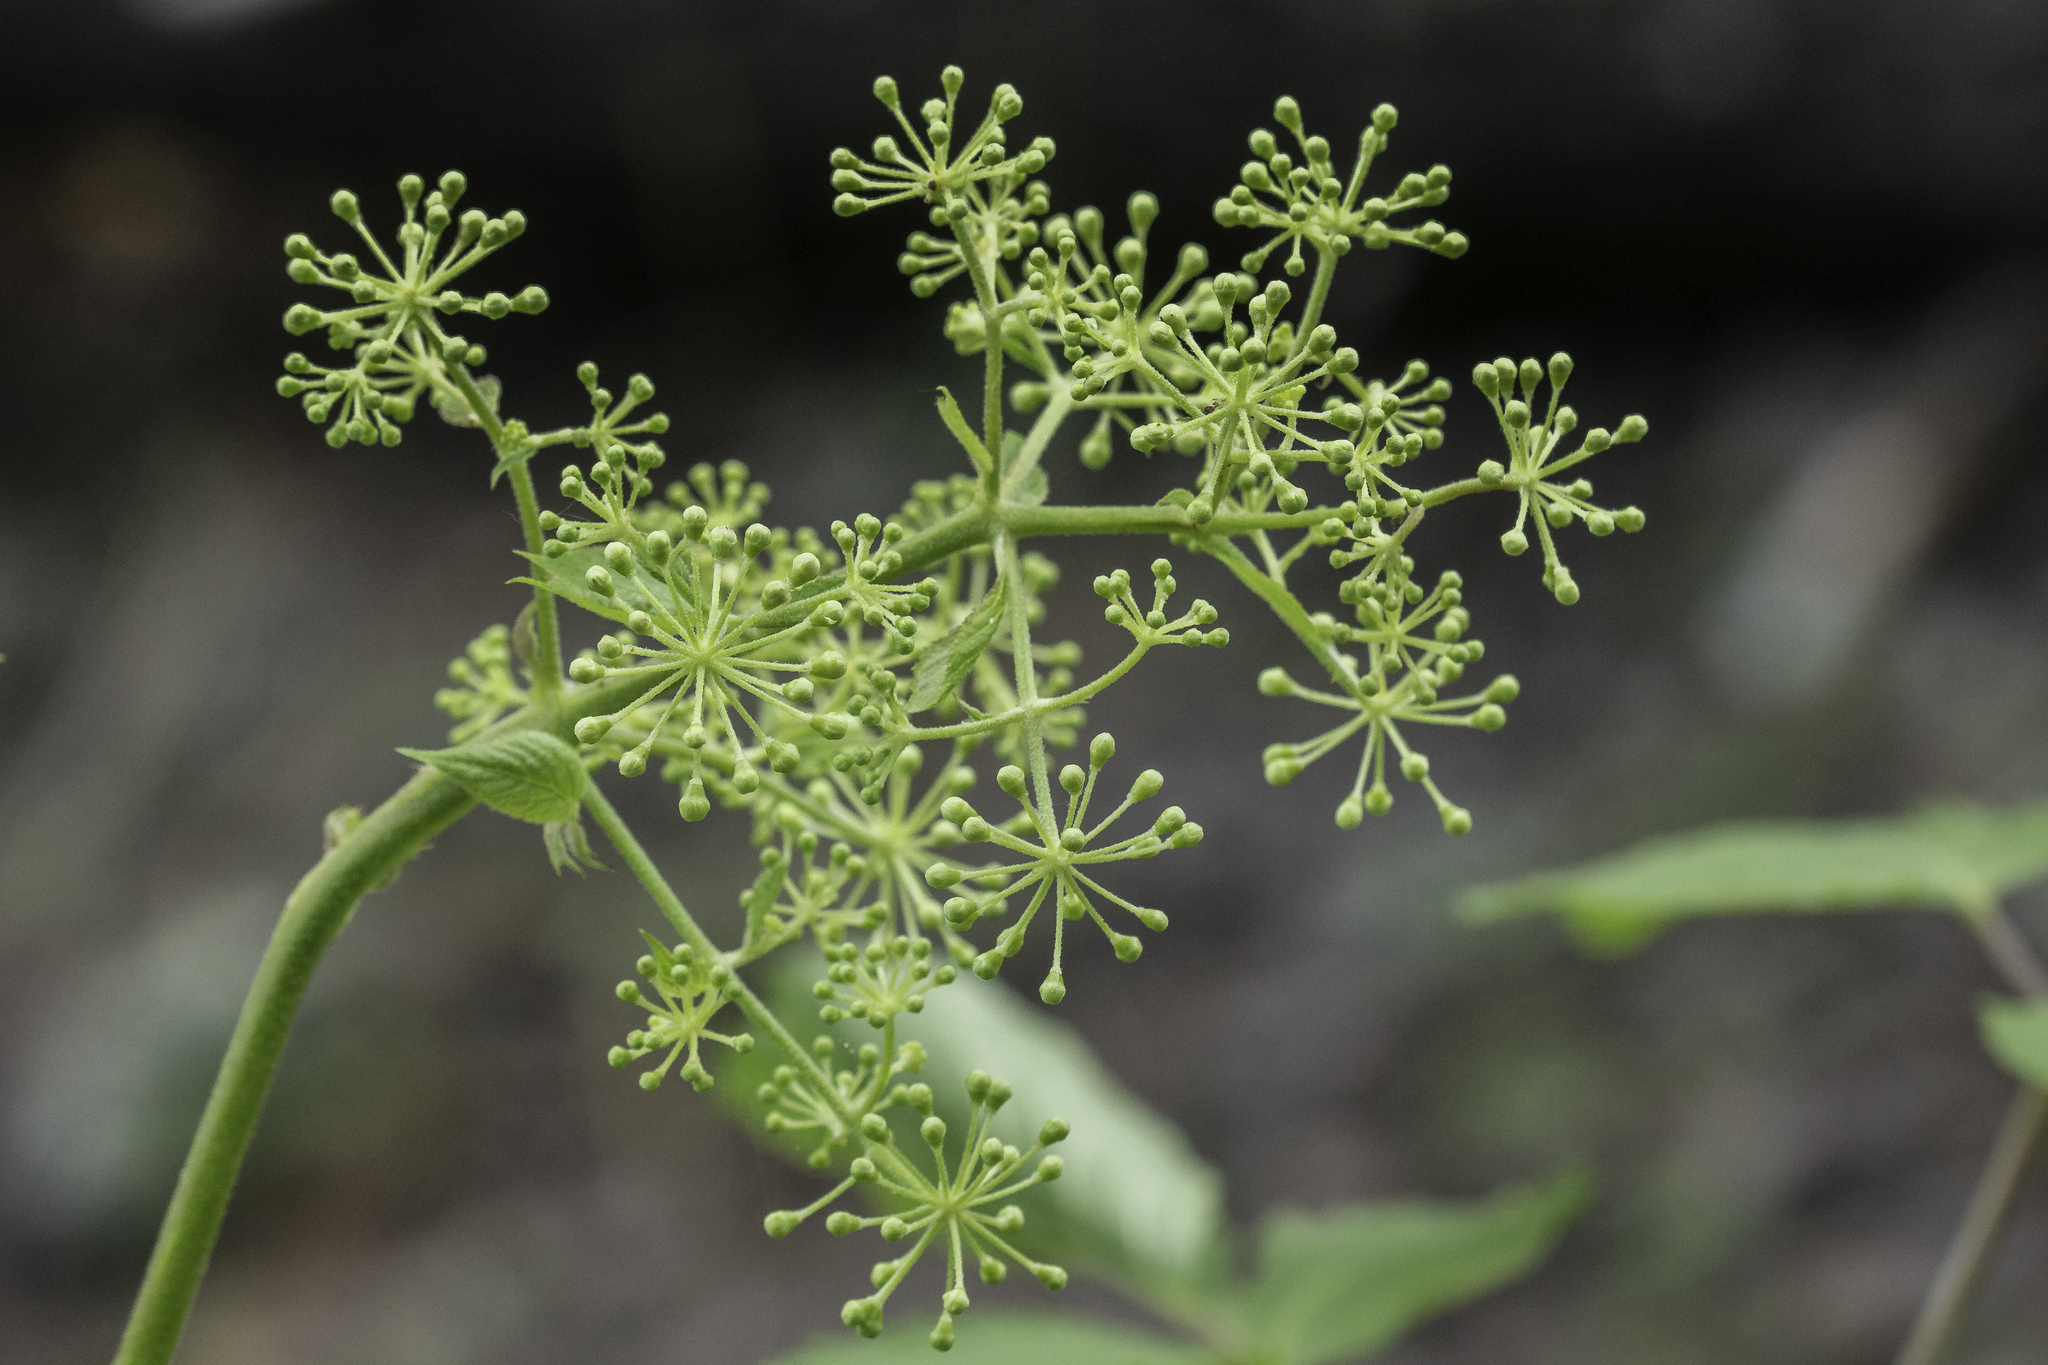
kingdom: Plantae
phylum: Tracheophyta
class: Magnoliopsida
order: Apiales
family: Araliaceae
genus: Aralia
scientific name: Aralia bicrenata
